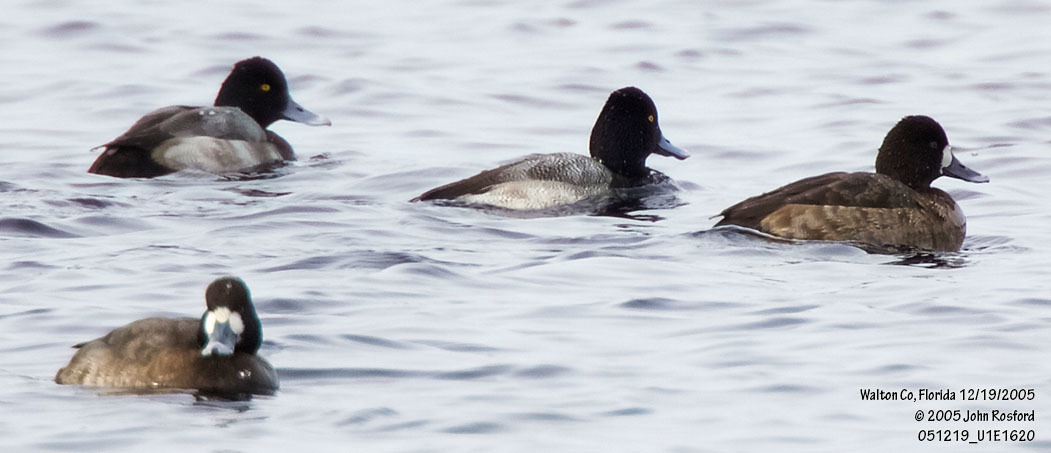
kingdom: Animalia
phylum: Chordata
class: Aves
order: Anseriformes
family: Anatidae
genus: Aythya
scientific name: Aythya affinis
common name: Lesser scaup
